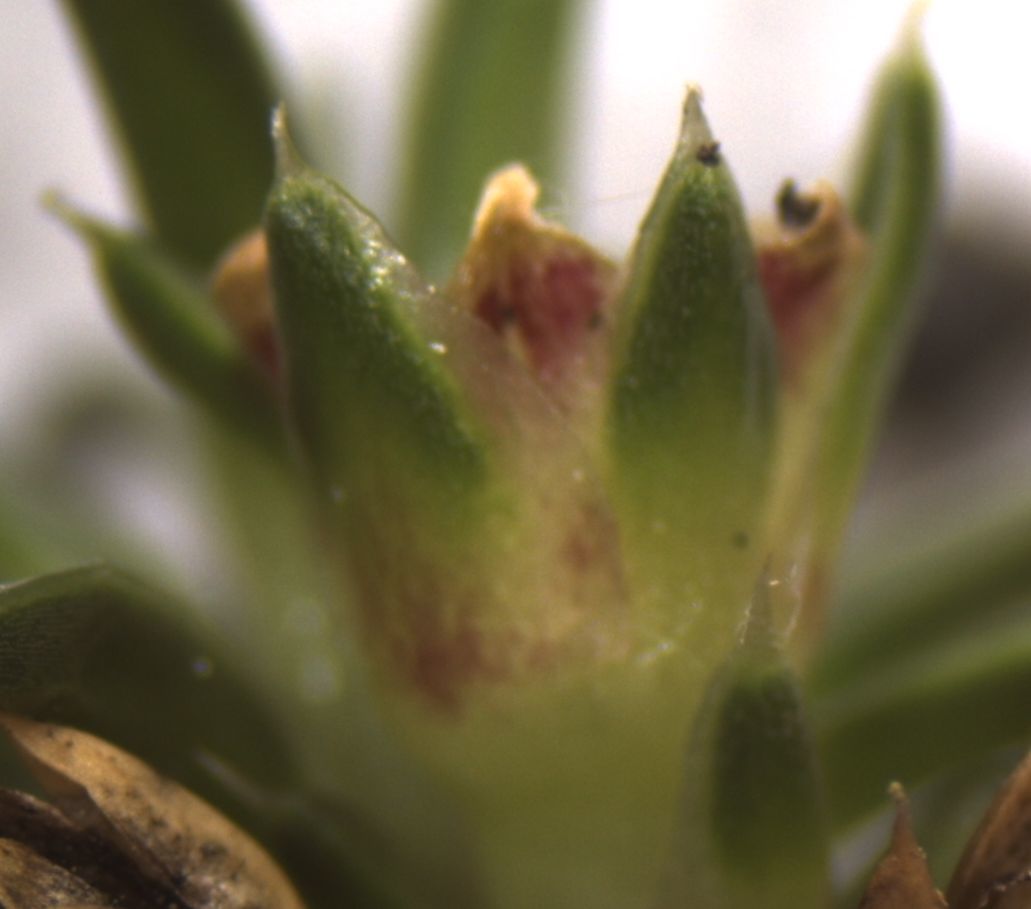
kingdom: Plantae
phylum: Tracheophyta
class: Magnoliopsida
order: Caryophyllales
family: Caryophyllaceae
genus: Colobanthus
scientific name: Colobanthus muelleri
